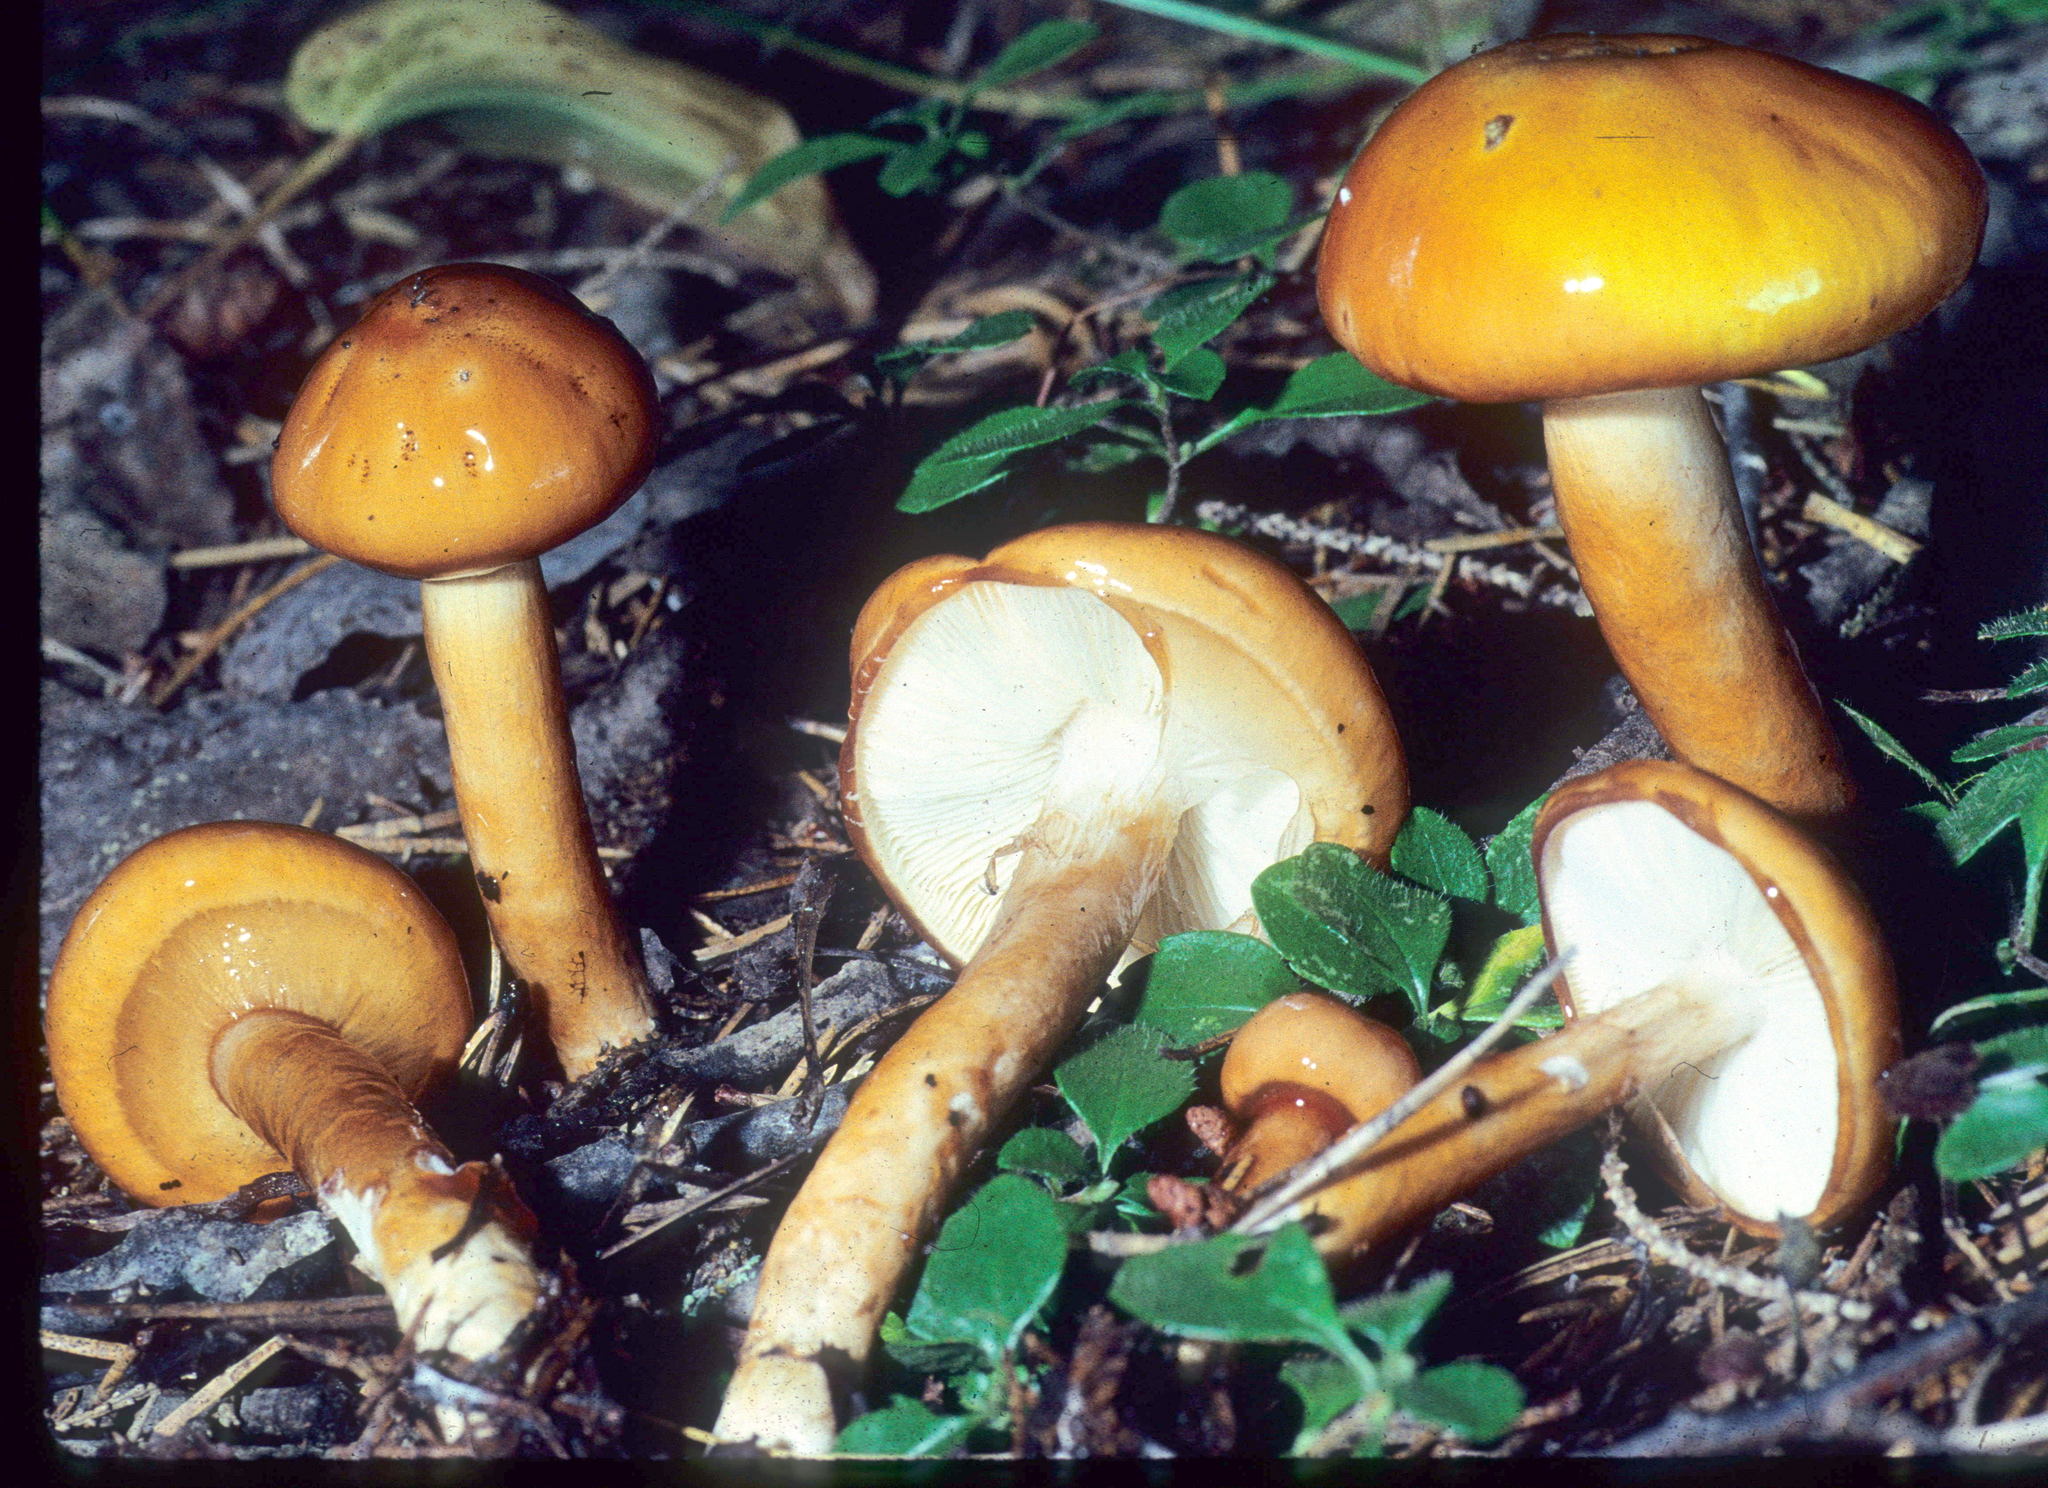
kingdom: Fungi
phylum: Basidiomycota
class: Agaricomycetes
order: Agaricales
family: Amanitaceae
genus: Limacella
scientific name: Limacella glischra
